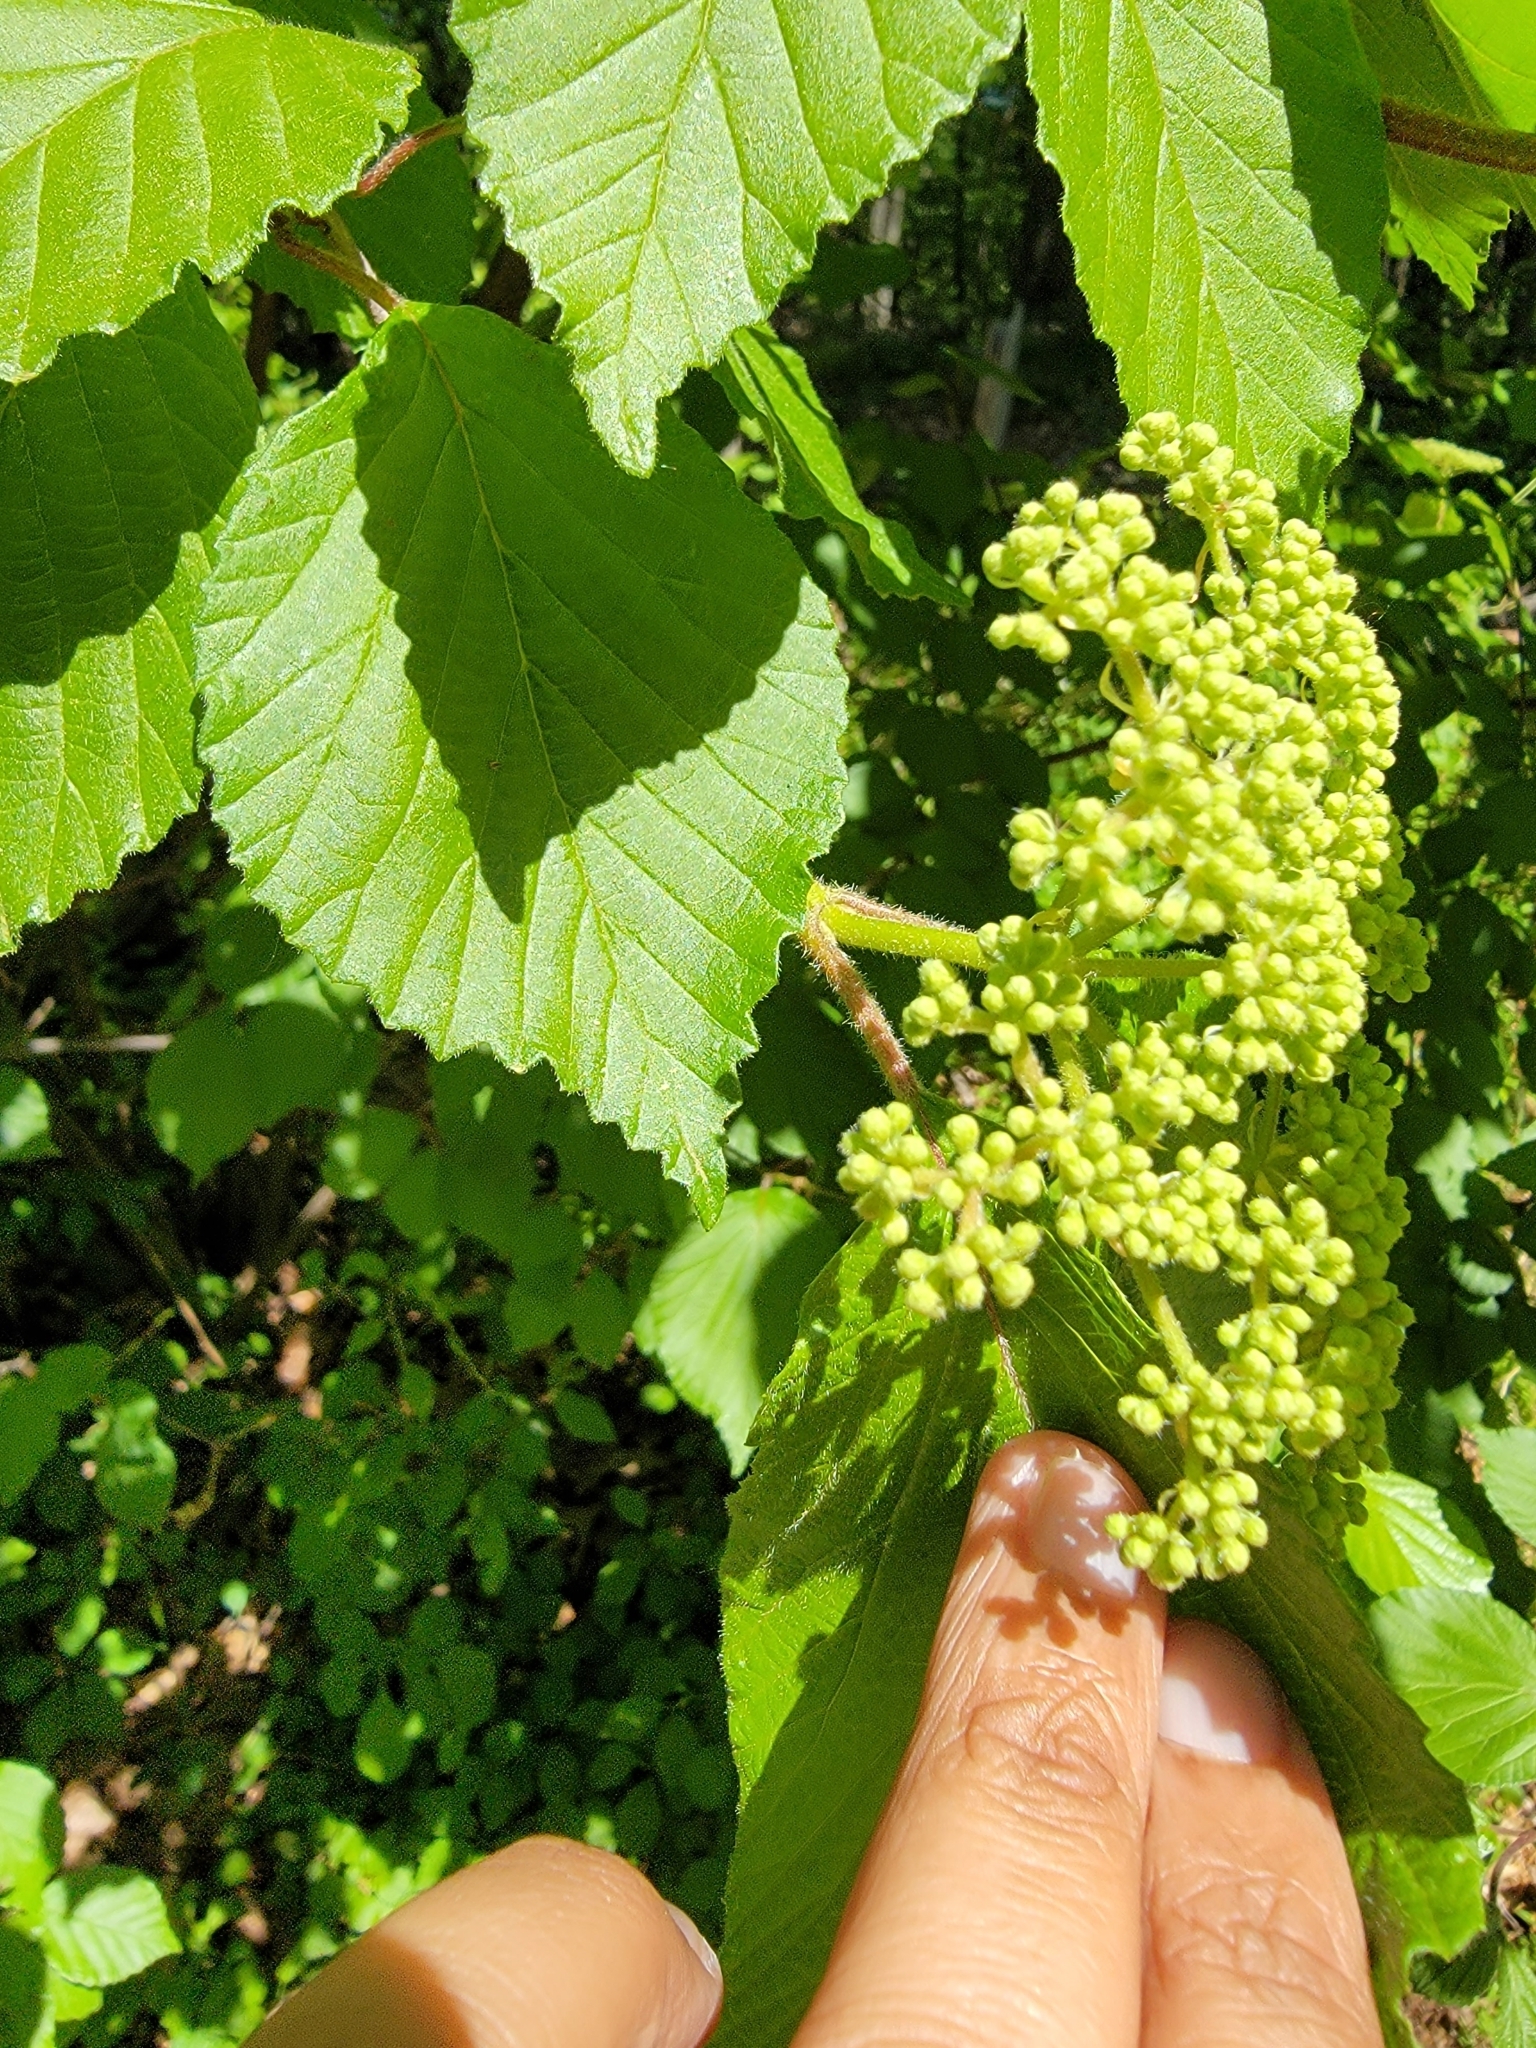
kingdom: Plantae
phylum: Tracheophyta
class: Magnoliopsida
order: Dipsacales
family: Viburnaceae
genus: Viburnum
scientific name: Viburnum dilatatum
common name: Linden arrowwood
